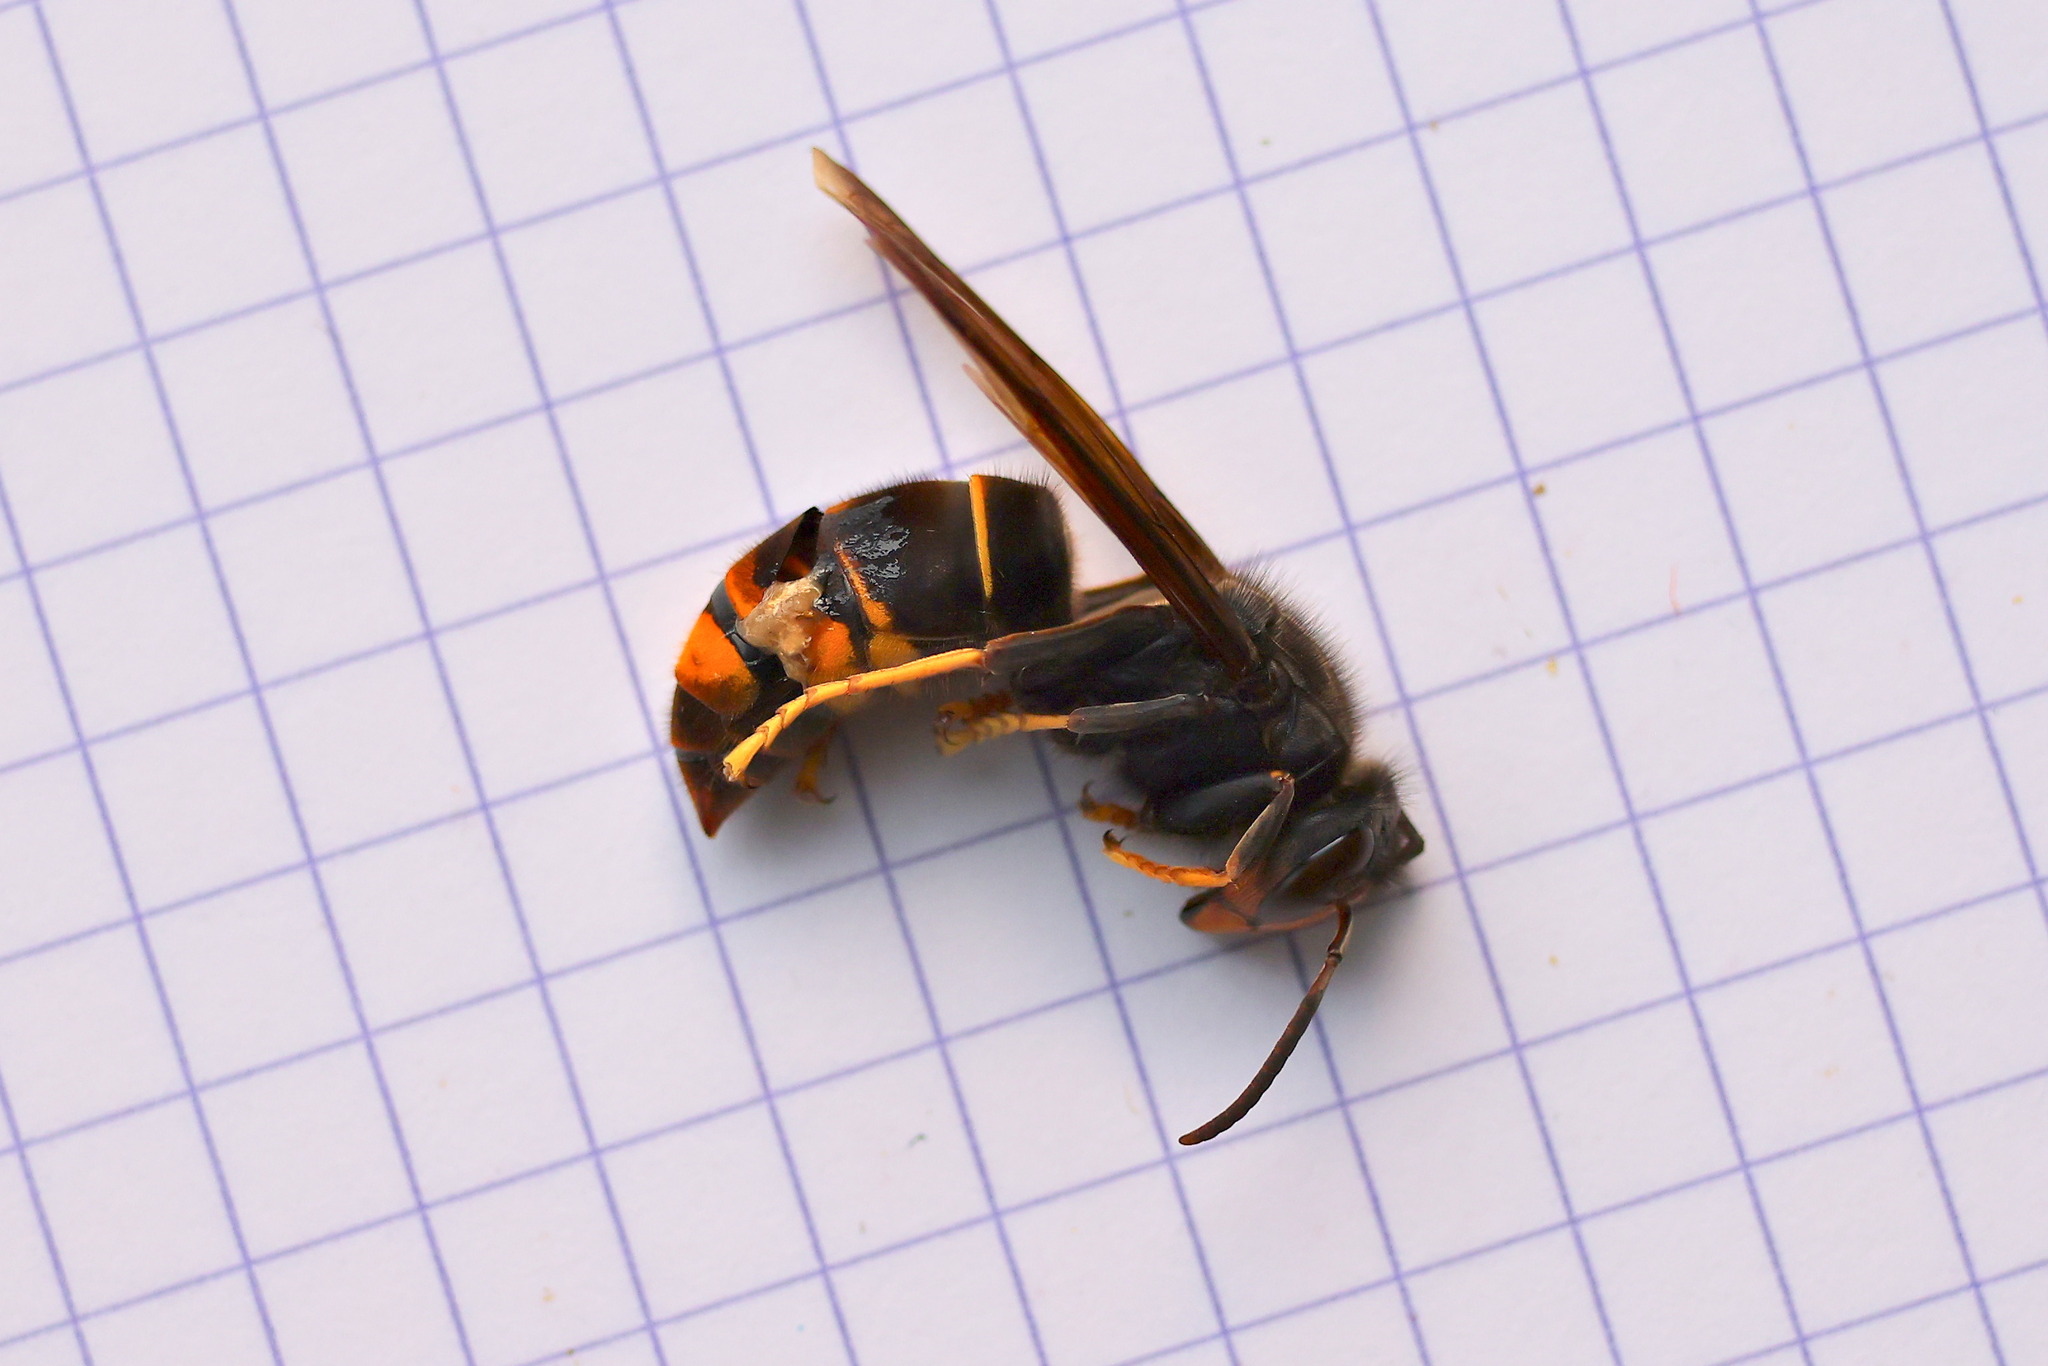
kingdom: Animalia
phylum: Arthropoda
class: Insecta
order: Hymenoptera
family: Vespidae
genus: Vespa
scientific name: Vespa velutina
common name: Asian hornet
